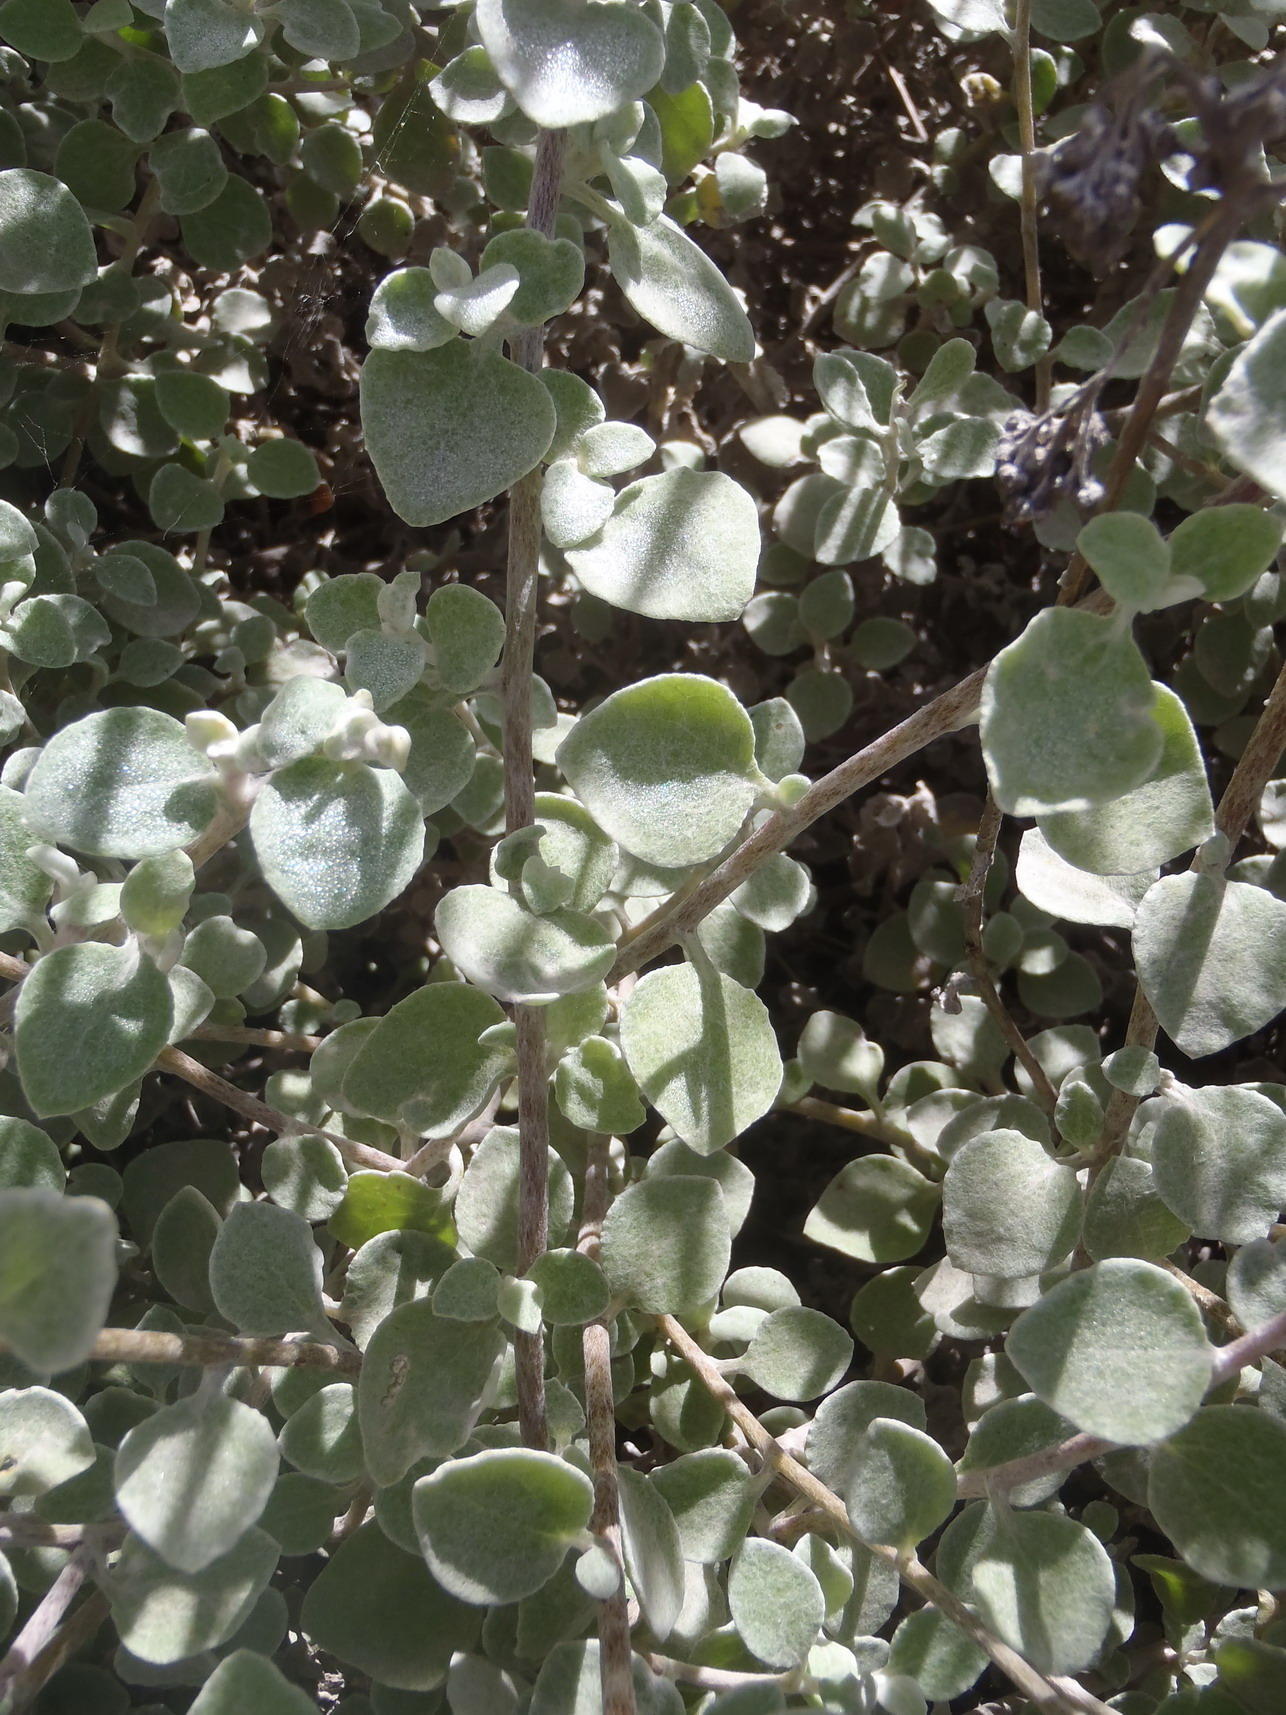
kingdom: Plantae
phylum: Tracheophyta
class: Magnoliopsida
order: Asterales
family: Asteraceae
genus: Helichrysum
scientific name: Helichrysum petiolare
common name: Licorice-plant
